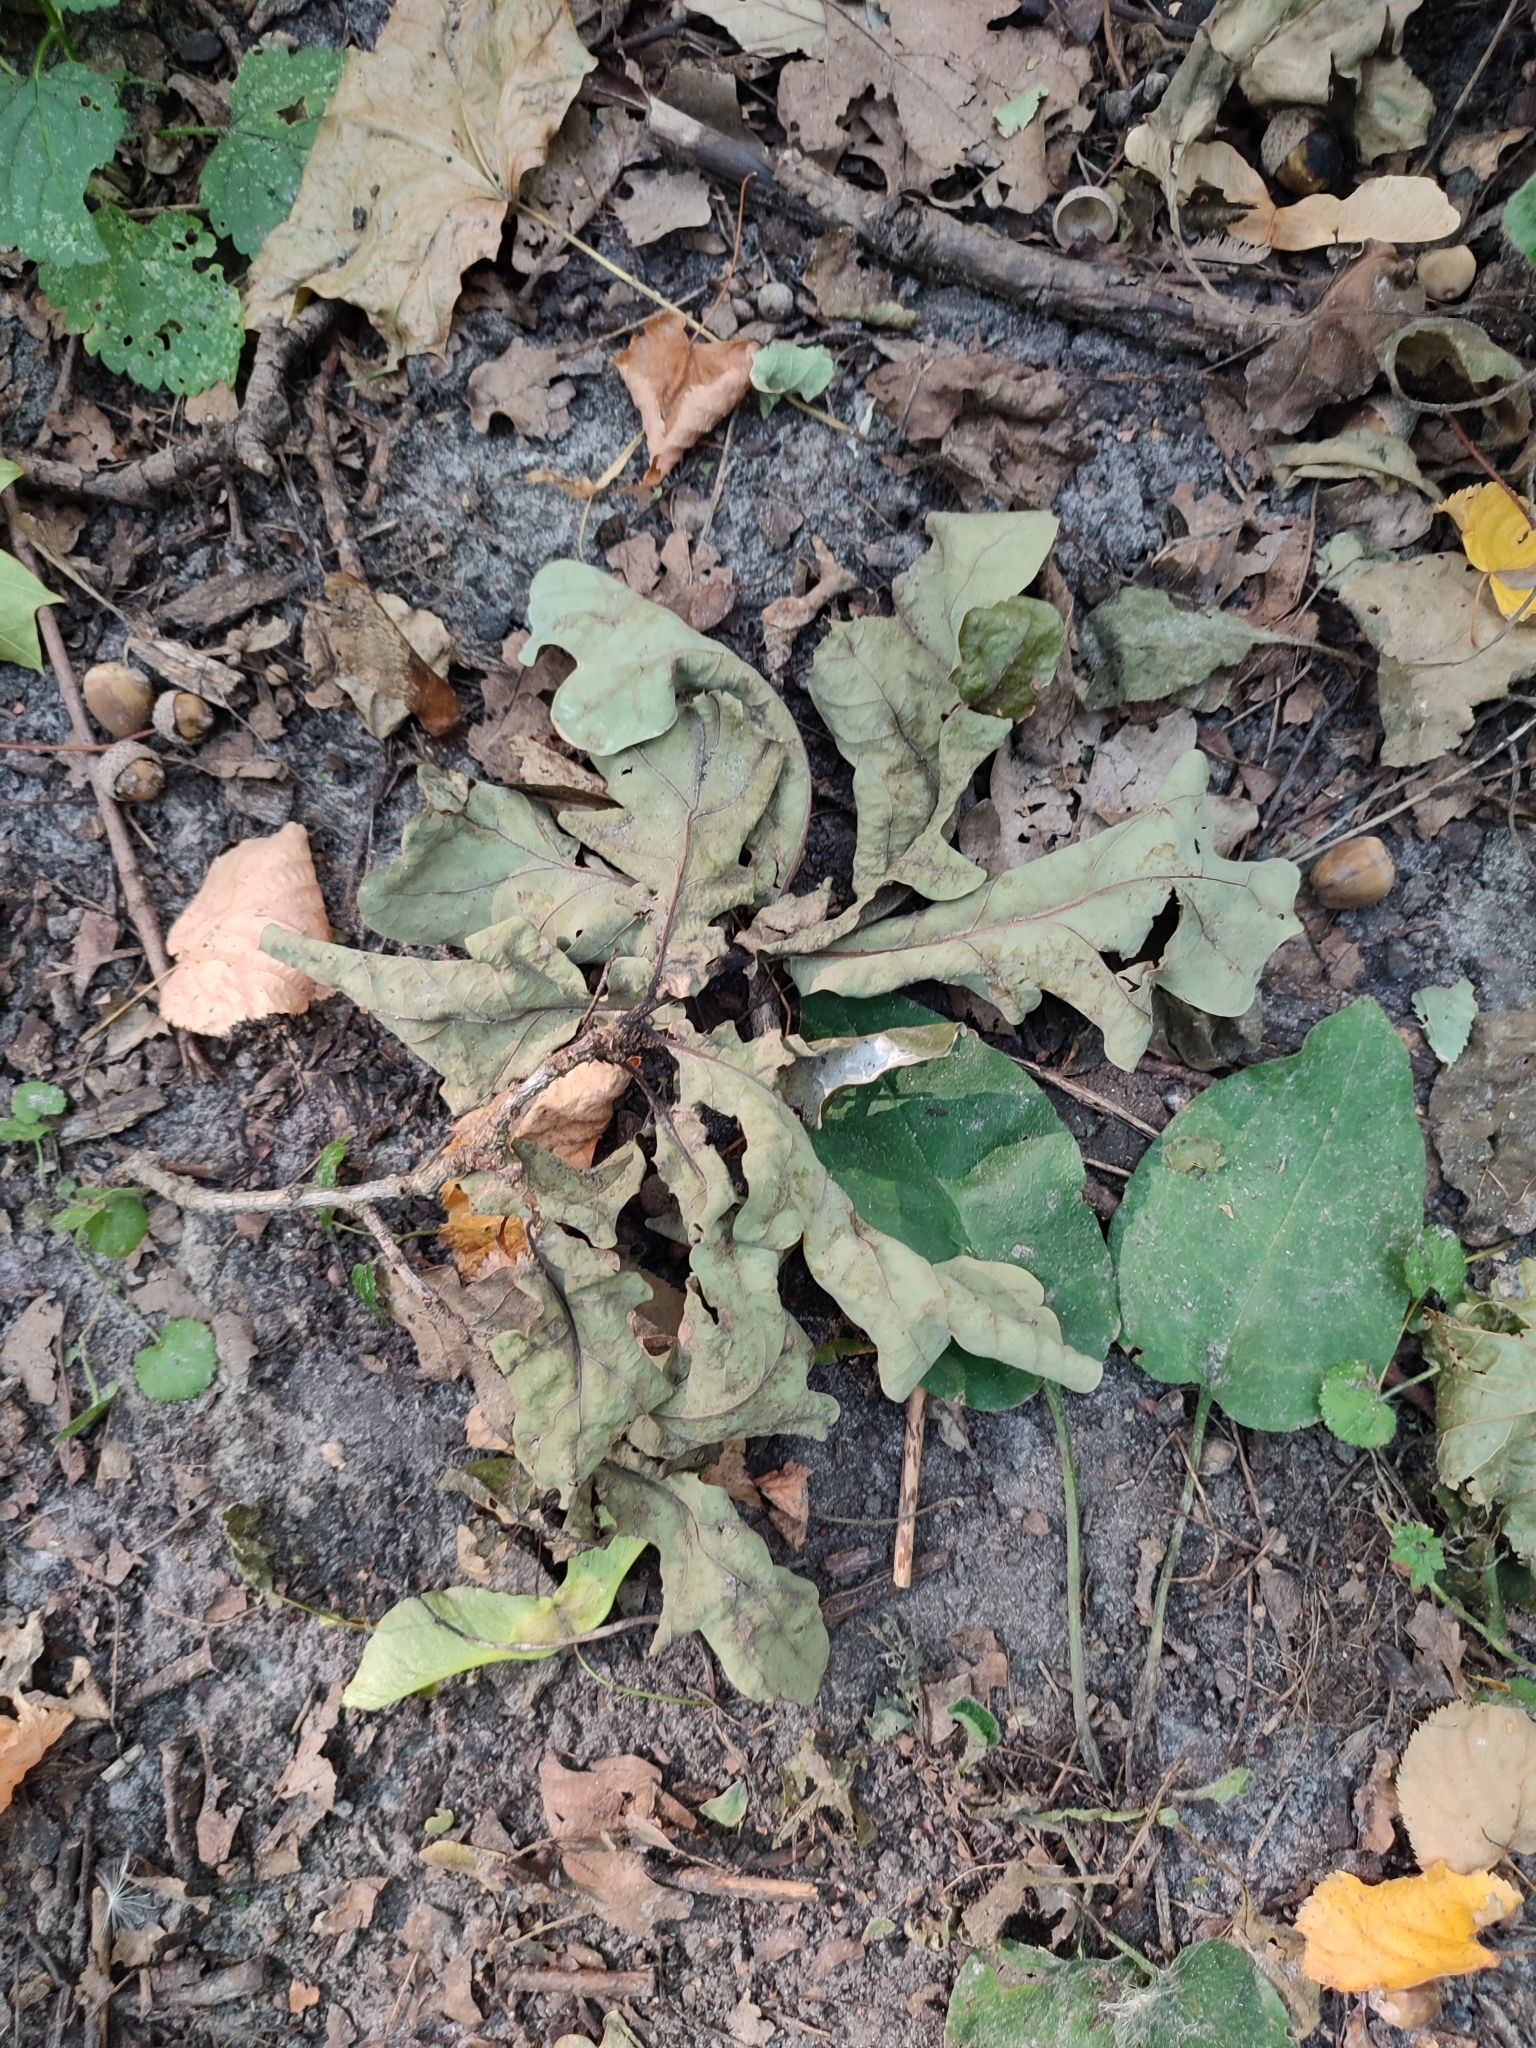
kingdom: Plantae
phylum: Tracheophyta
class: Magnoliopsida
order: Fagales
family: Fagaceae
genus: Quercus
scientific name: Quercus robur
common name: Pedunculate oak
